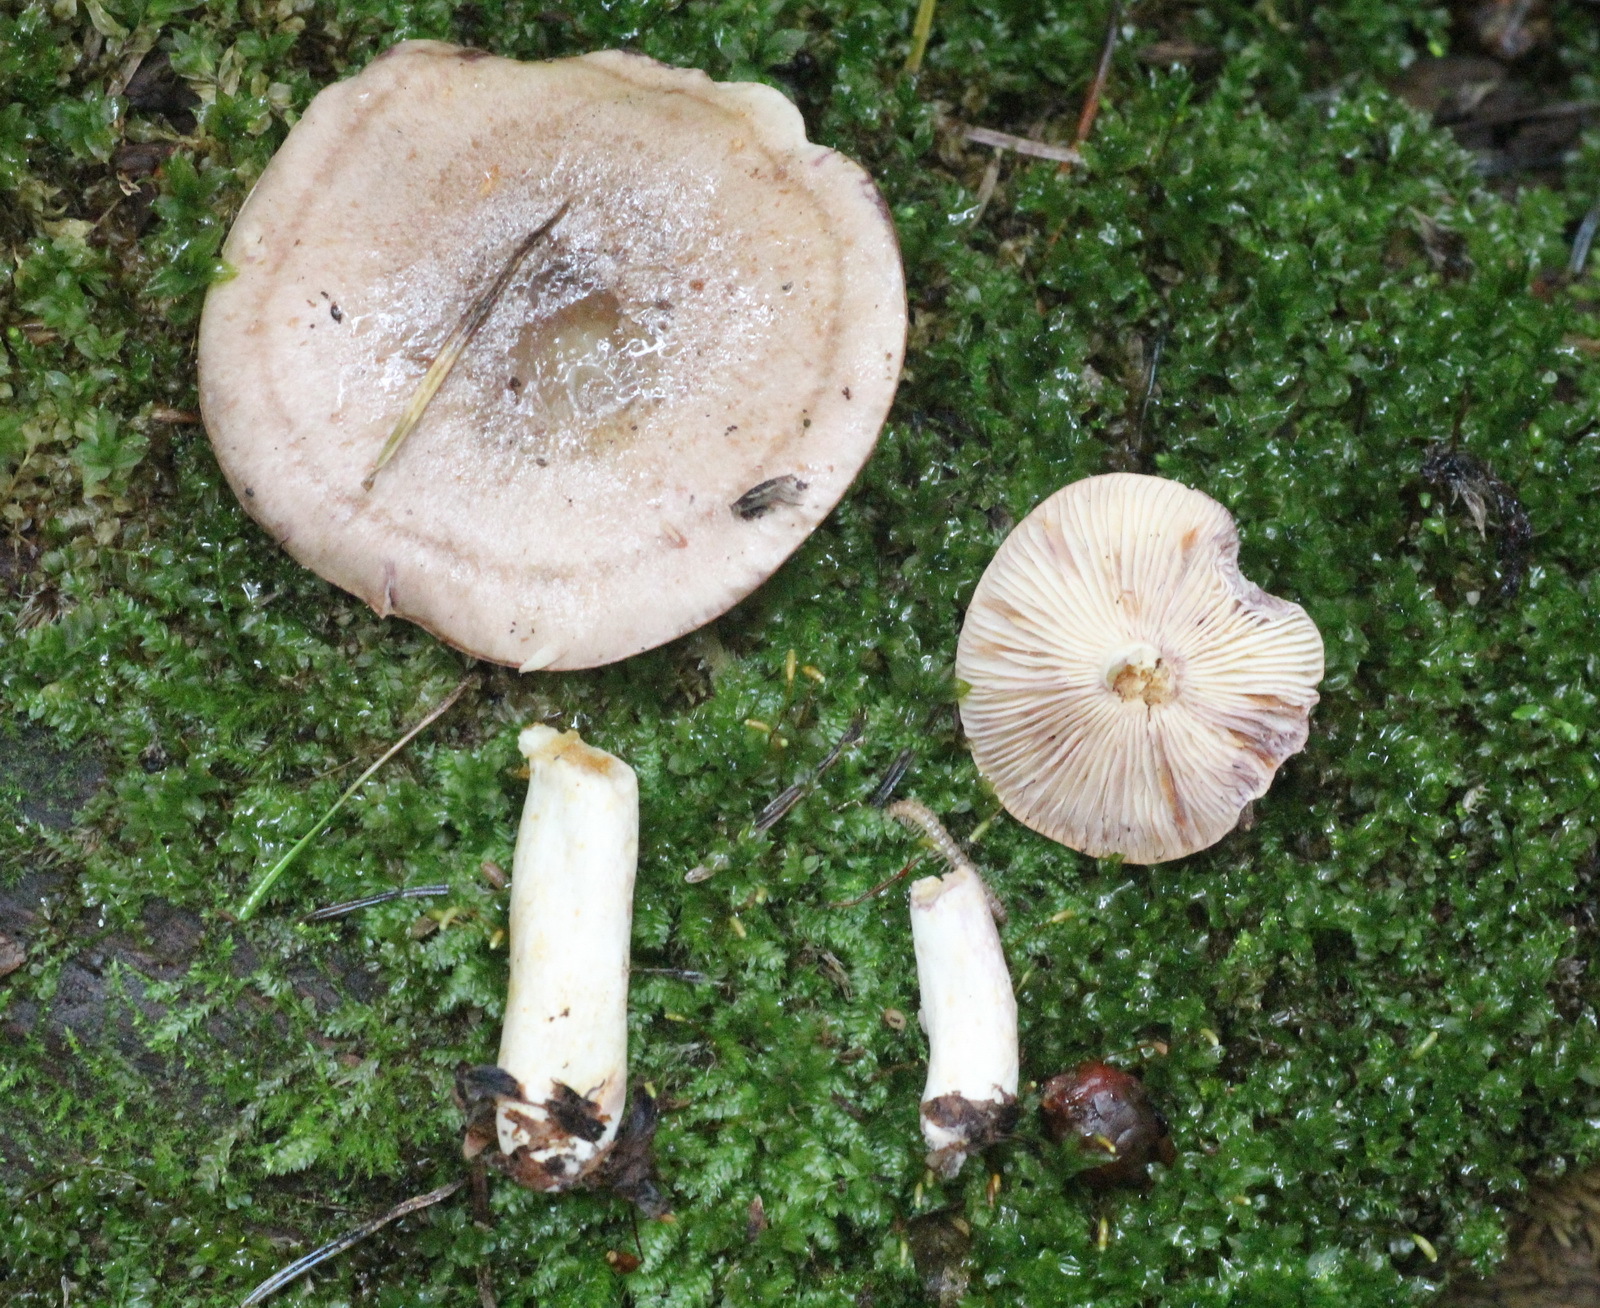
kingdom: Fungi
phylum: Basidiomycota
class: Agaricomycetes
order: Russulales
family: Russulaceae
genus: Lactarius
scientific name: Lactarius uvidus
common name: Shiner milkcap
